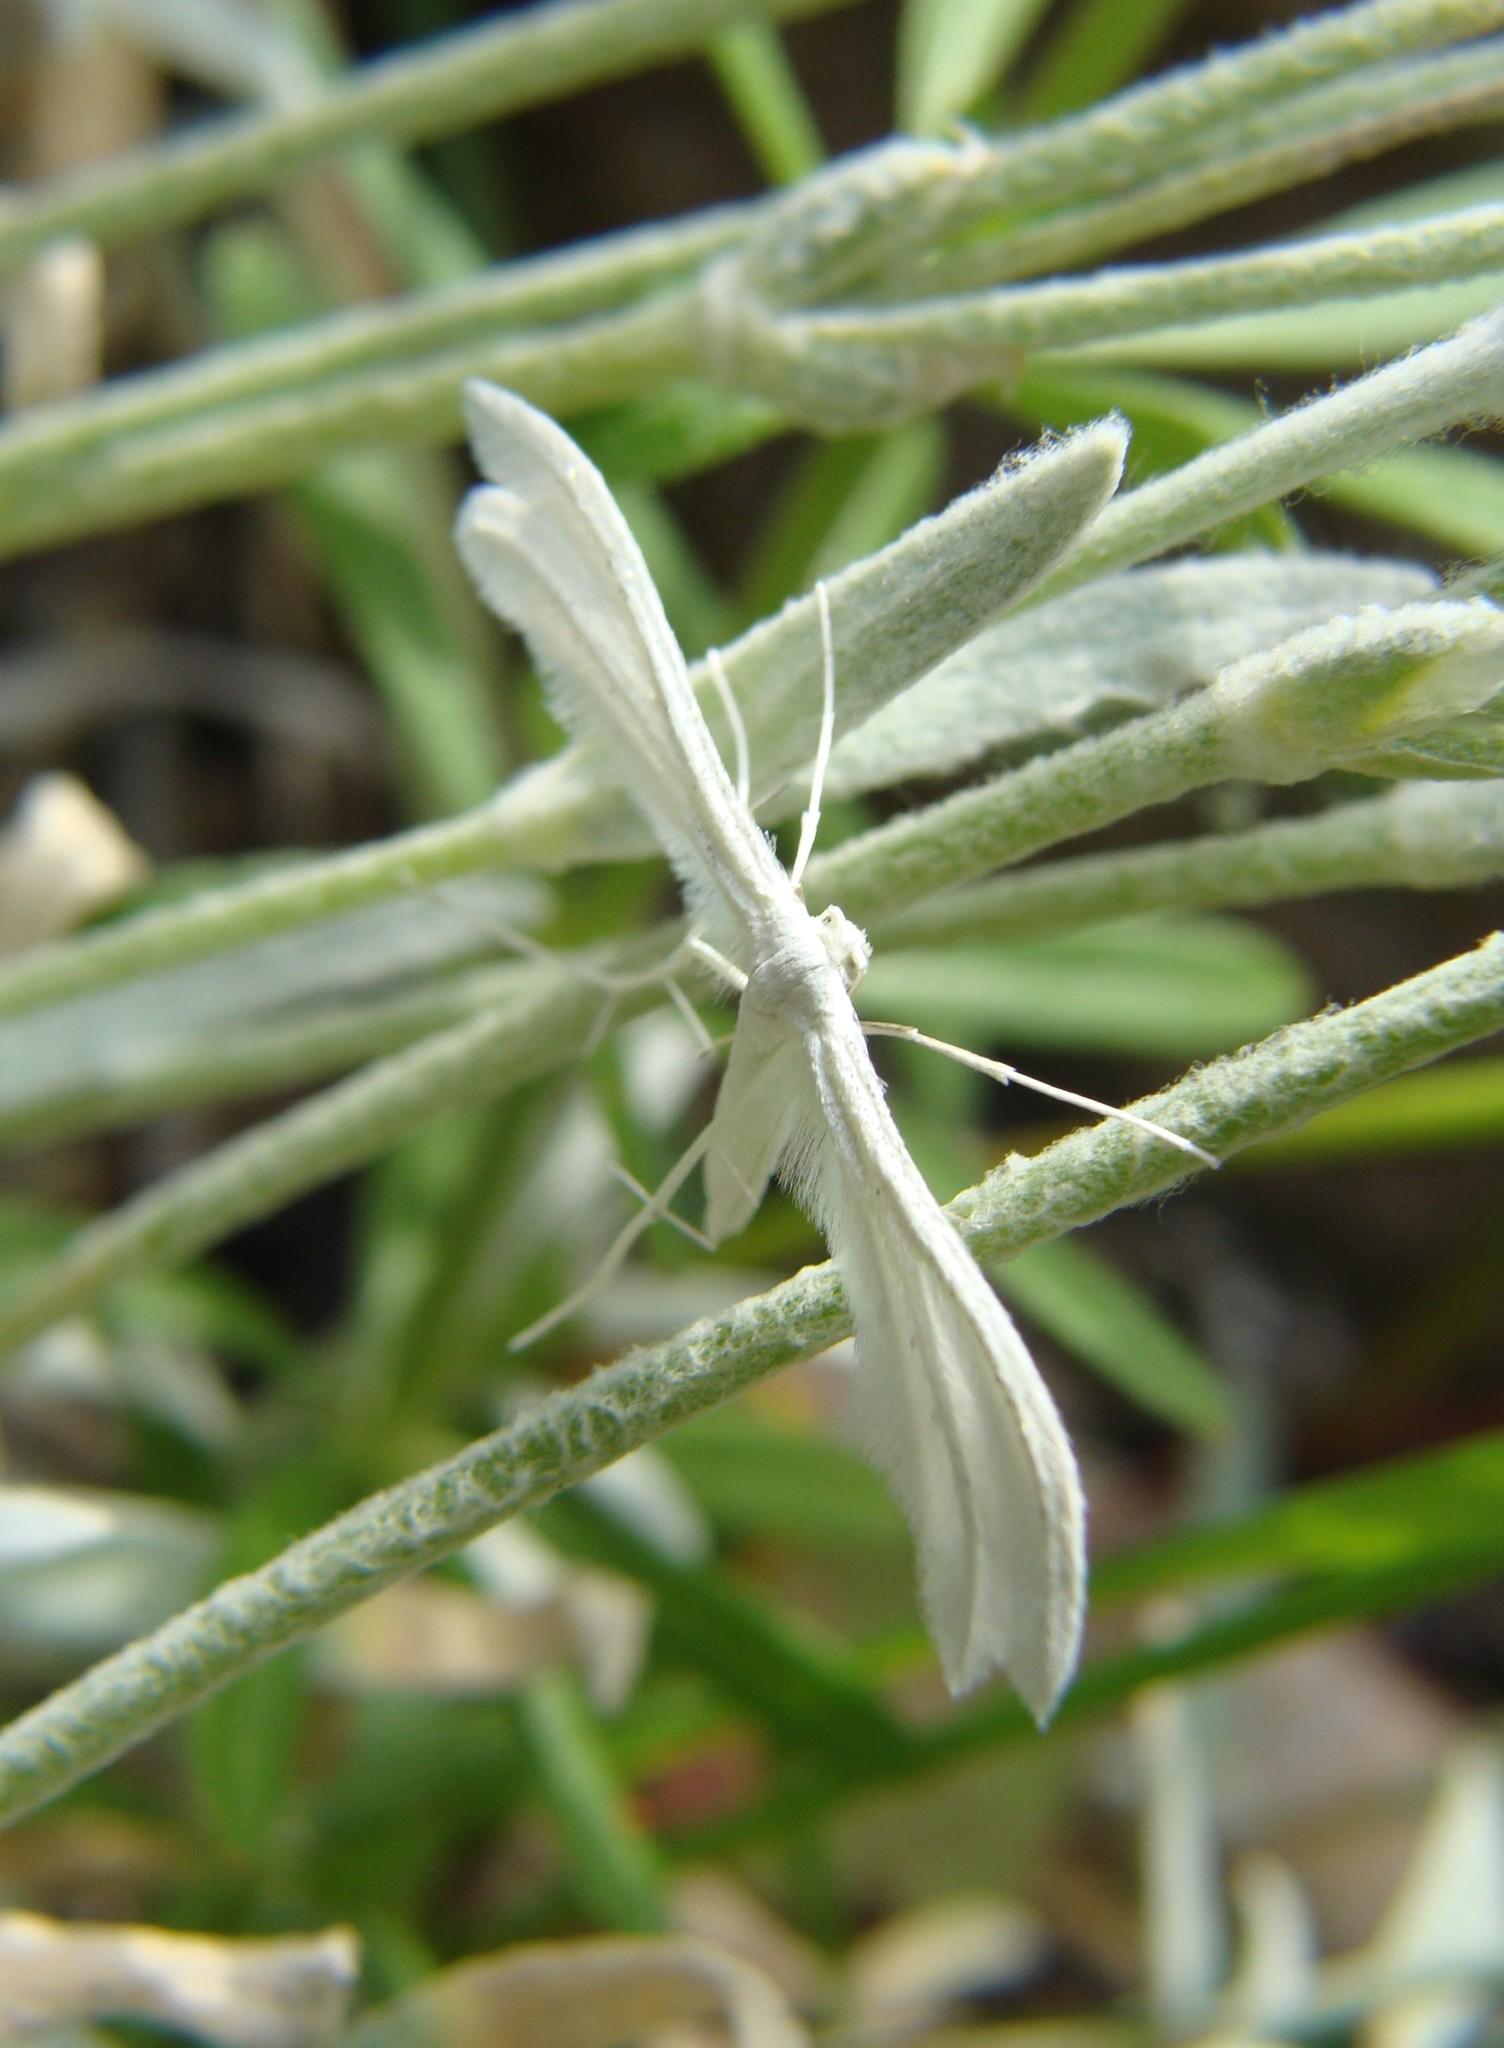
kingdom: Animalia
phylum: Arthropoda
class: Insecta
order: Lepidoptera
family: Pterophoridae
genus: Pterophorus
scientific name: Pterophorus pentadactyla
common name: White plume moth
